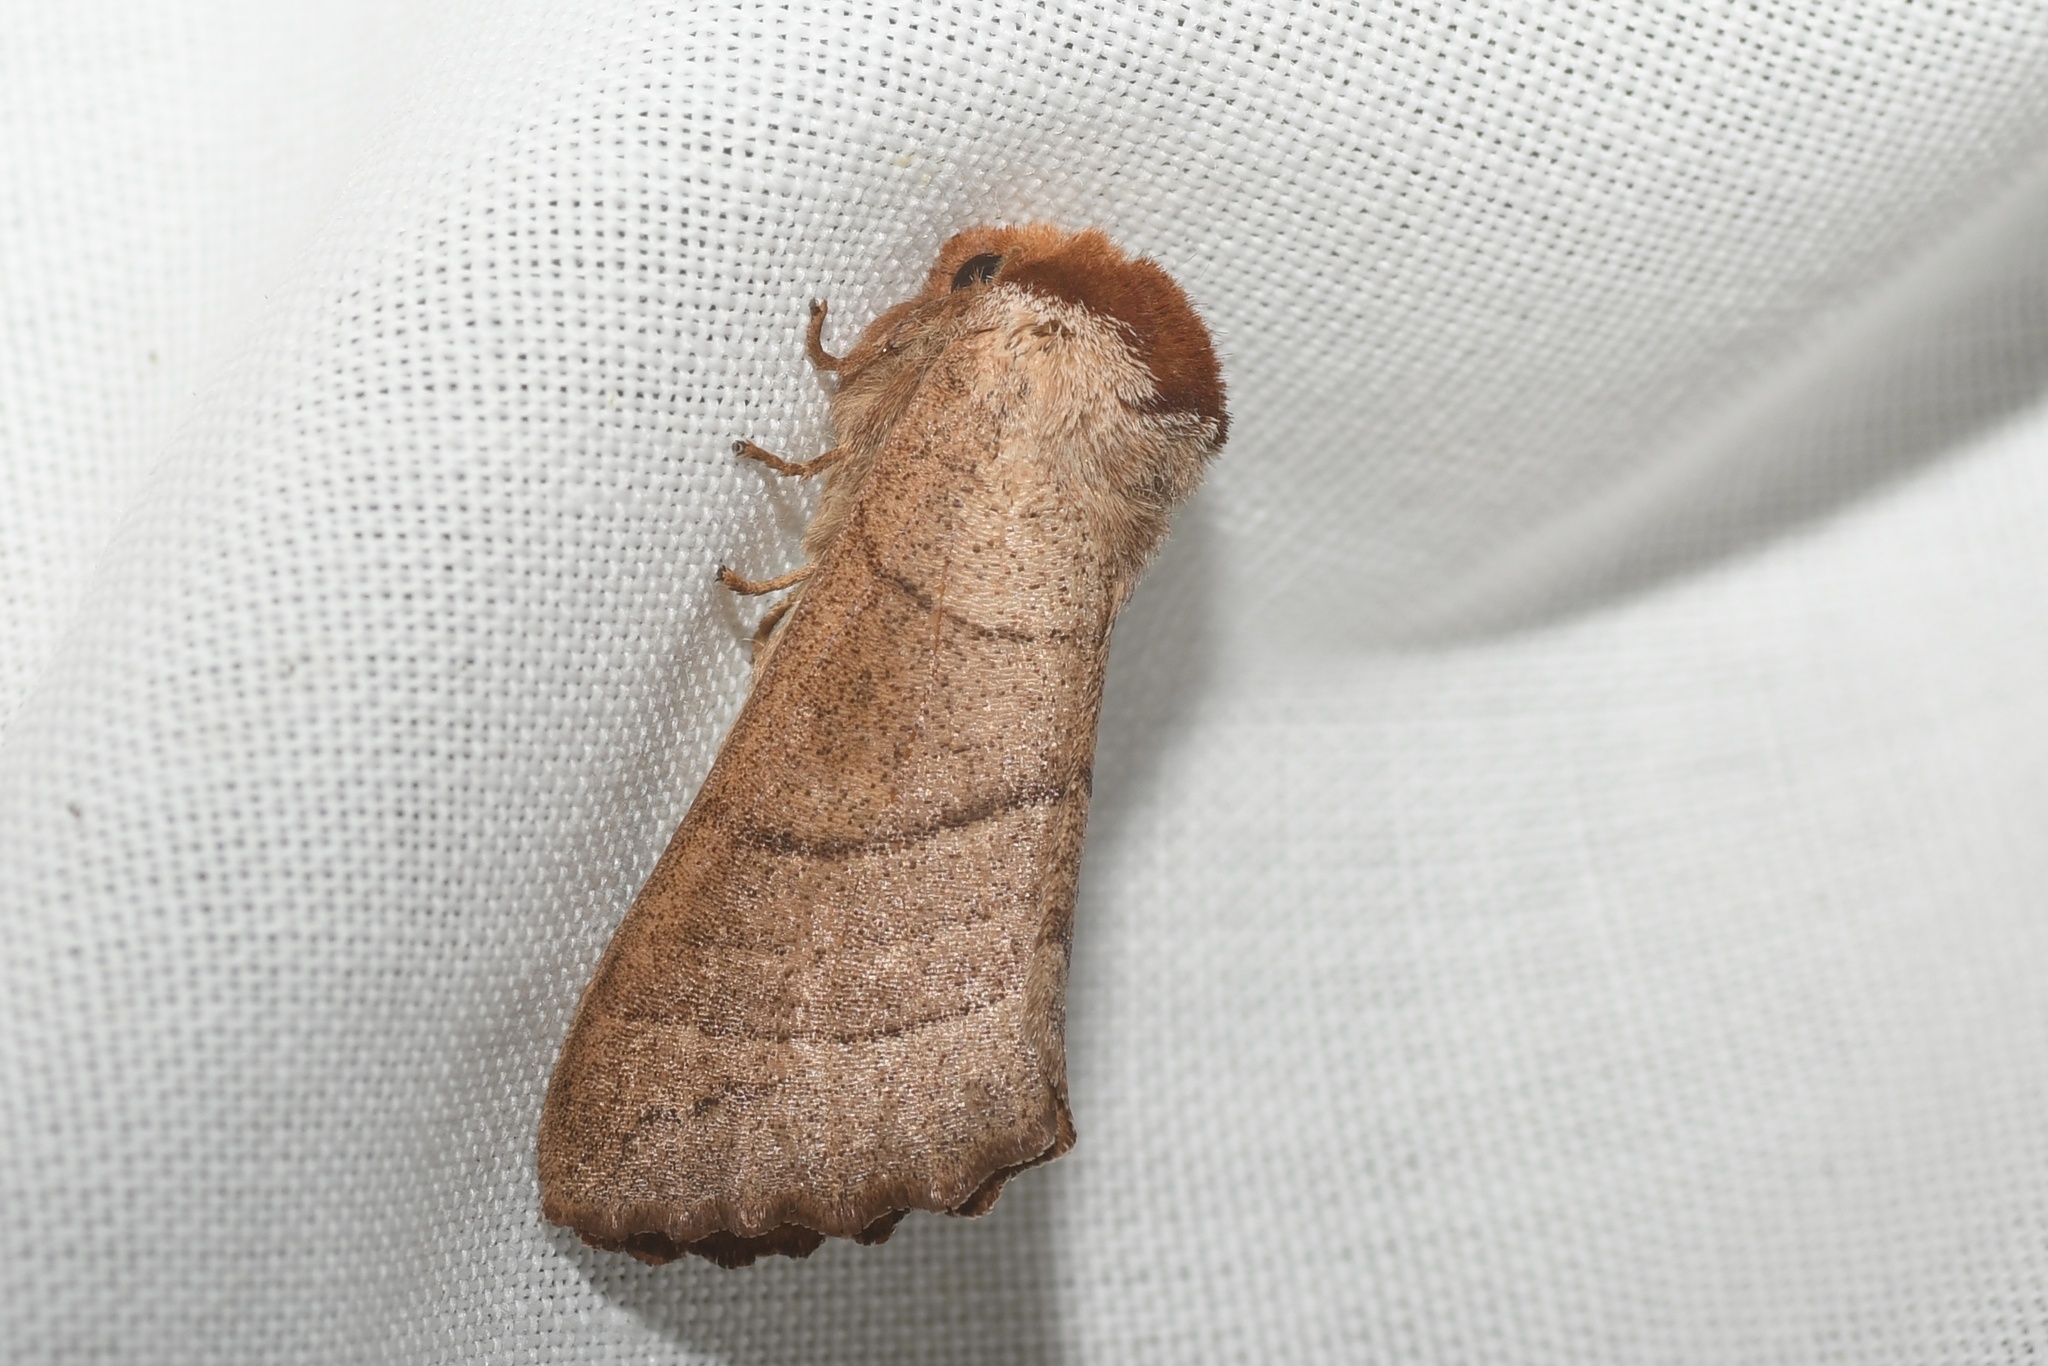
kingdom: Animalia
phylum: Arthropoda
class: Insecta
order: Lepidoptera
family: Notodontidae
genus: Datana
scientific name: Datana ministra
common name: Yellow-necked caterpillar moth
